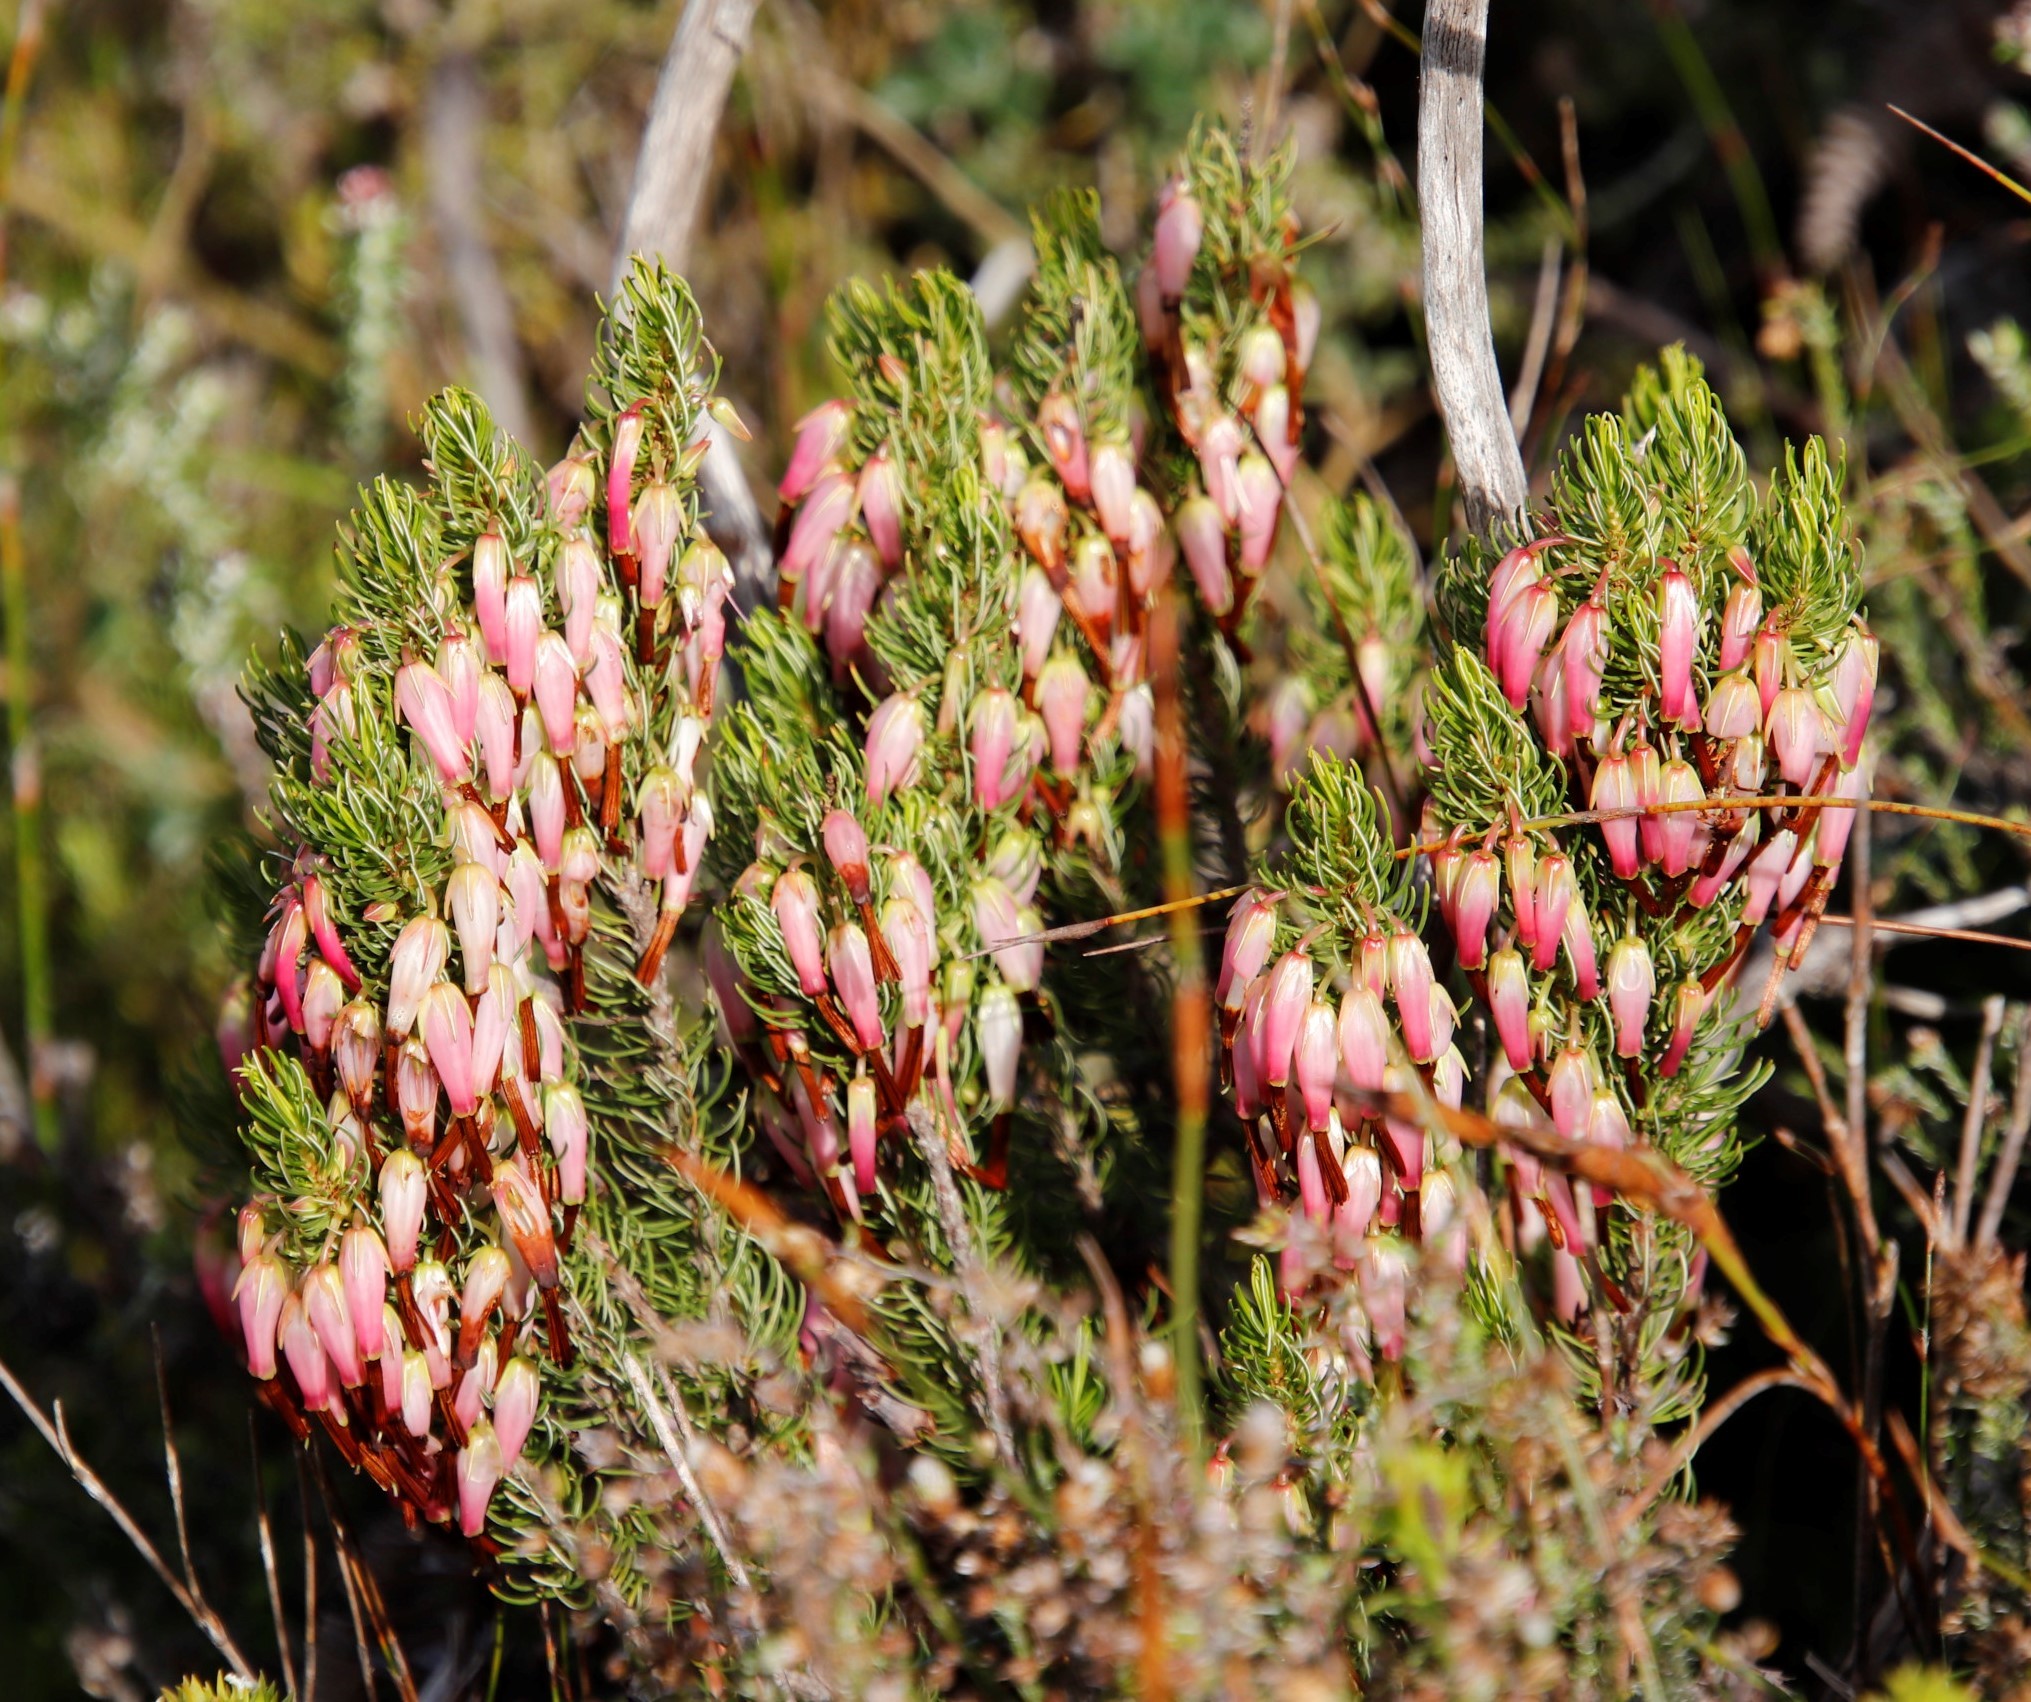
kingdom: Plantae
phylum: Tracheophyta
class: Magnoliopsida
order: Ericales
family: Ericaceae
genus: Erica
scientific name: Erica plukenetii
